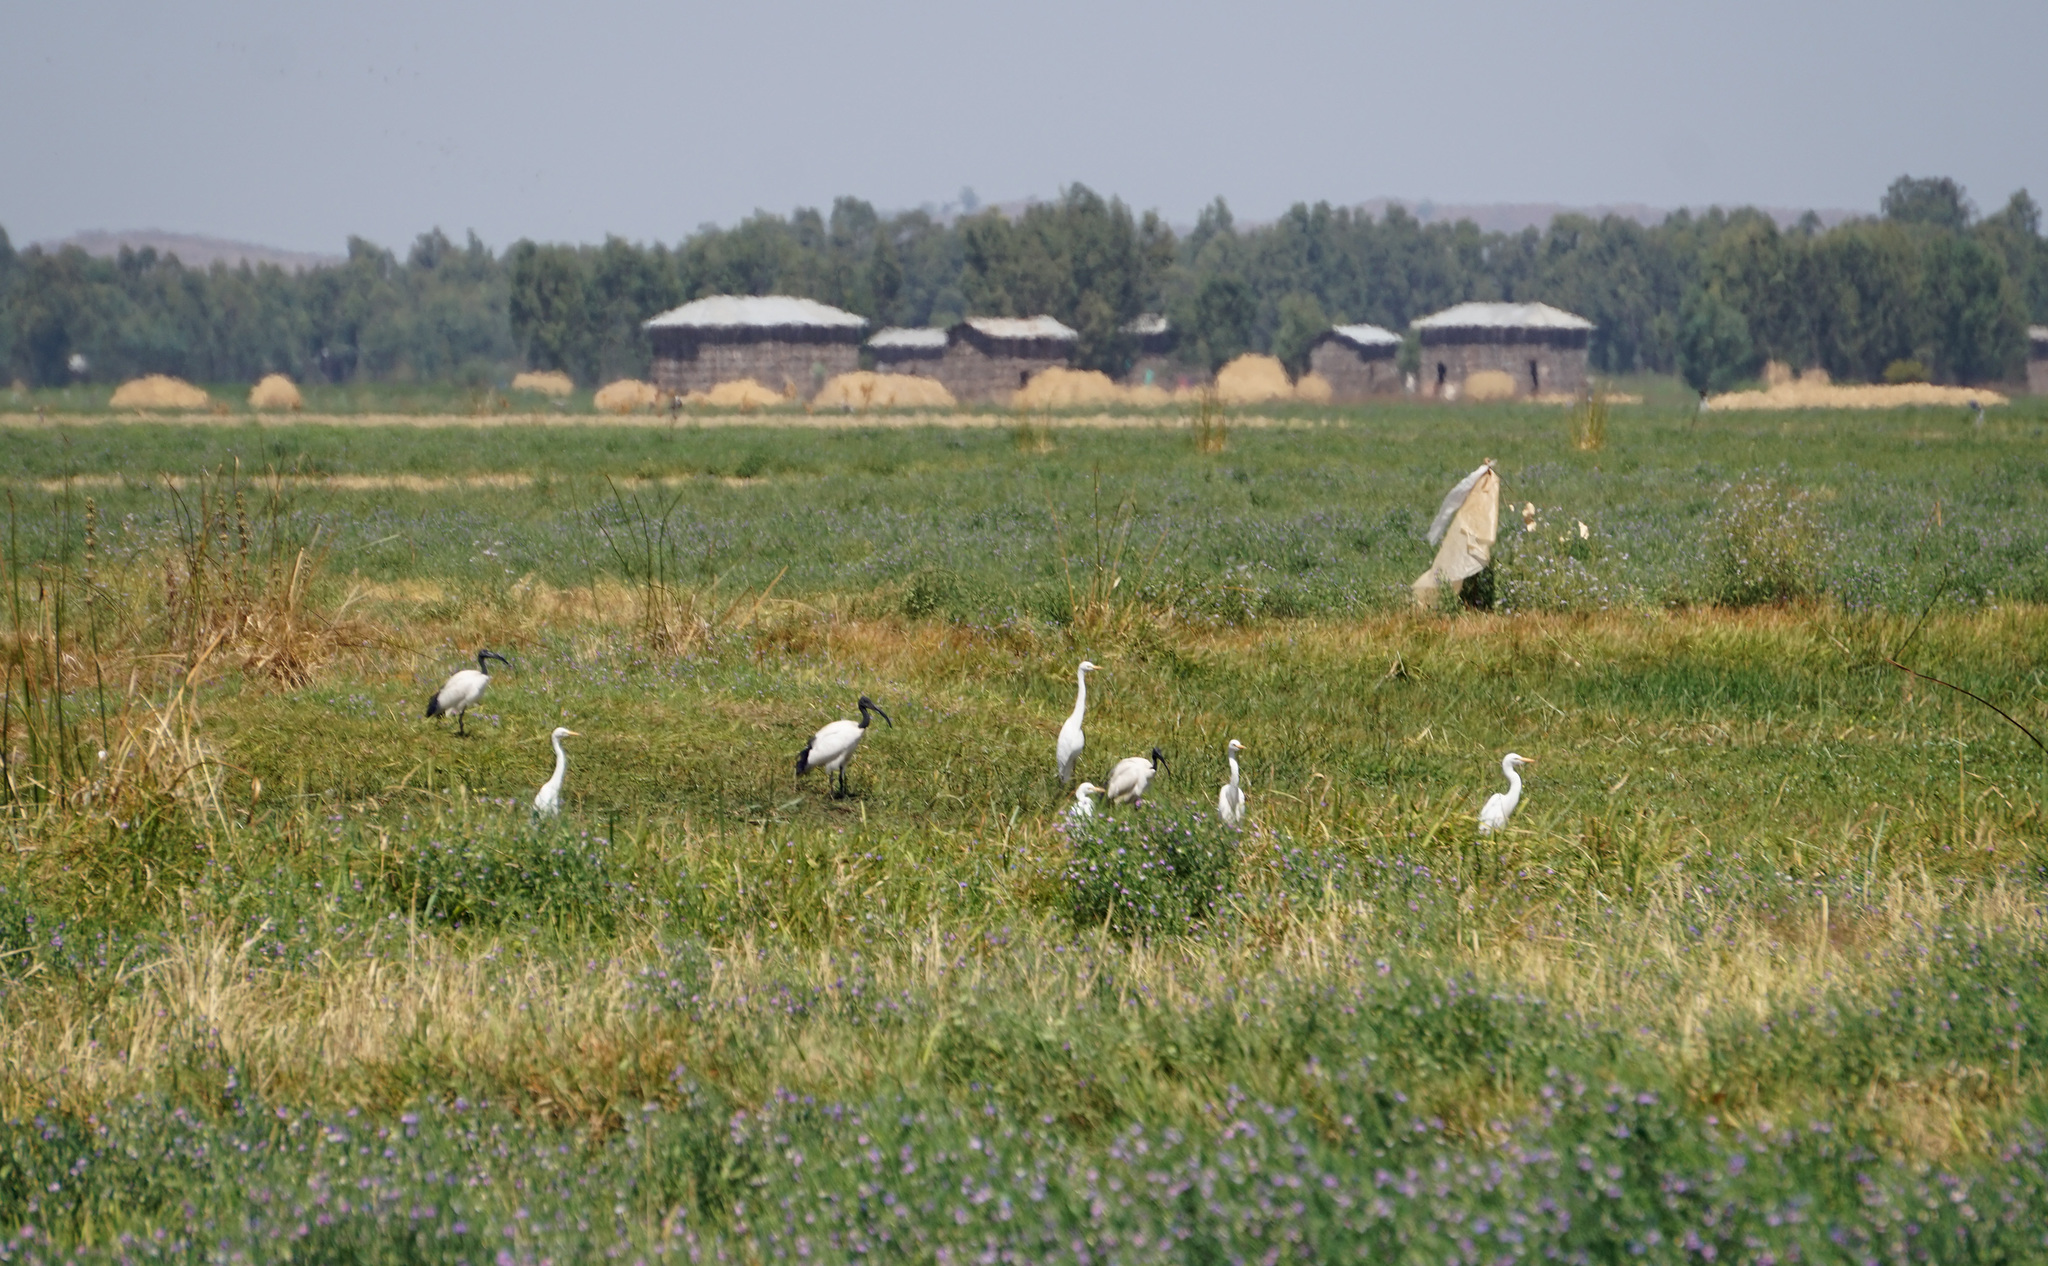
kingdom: Animalia
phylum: Chordata
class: Aves
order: Pelecaniformes
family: Ardeidae
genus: Bubulcus
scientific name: Bubulcus ibis
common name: Cattle egret
